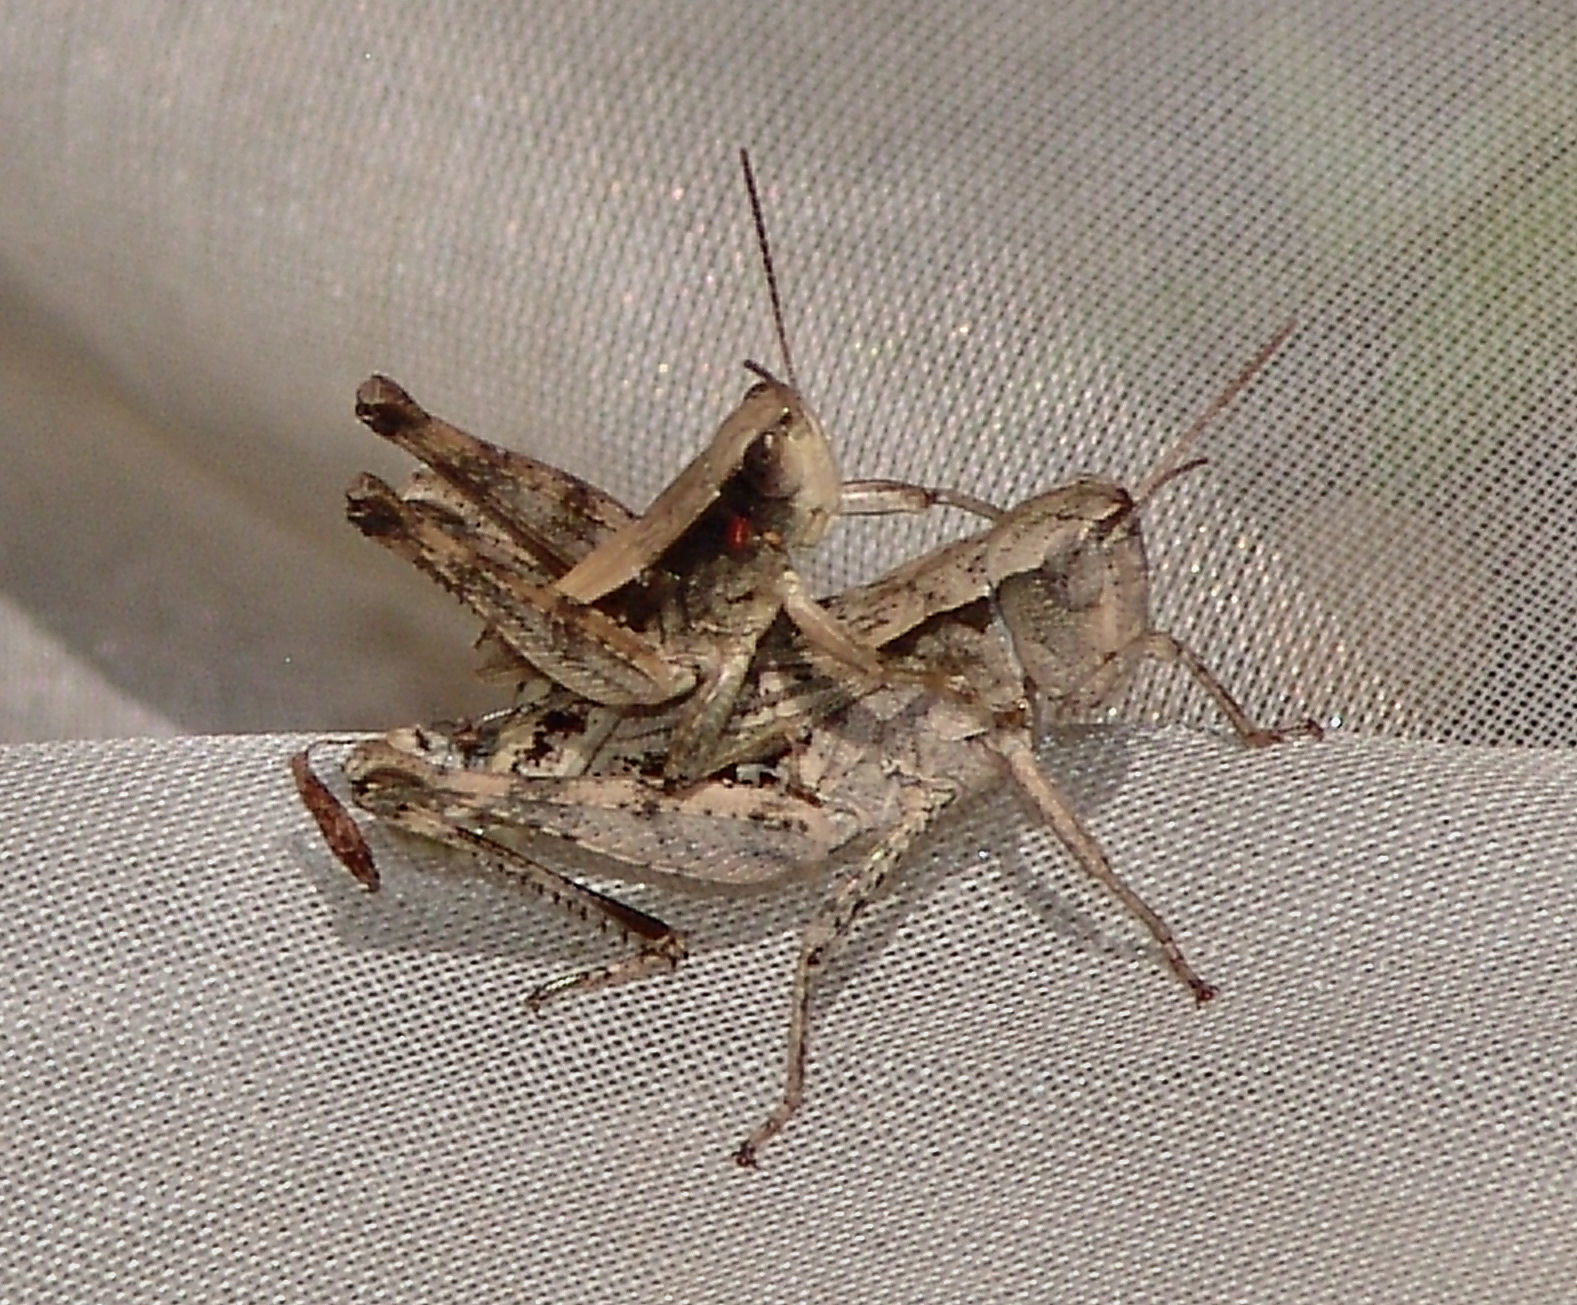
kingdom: Animalia
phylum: Arthropoda
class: Insecta
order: Orthoptera
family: Acrididae
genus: Dichromorpha
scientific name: Dichromorpha viridis
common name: Short-winged green grasshopper
